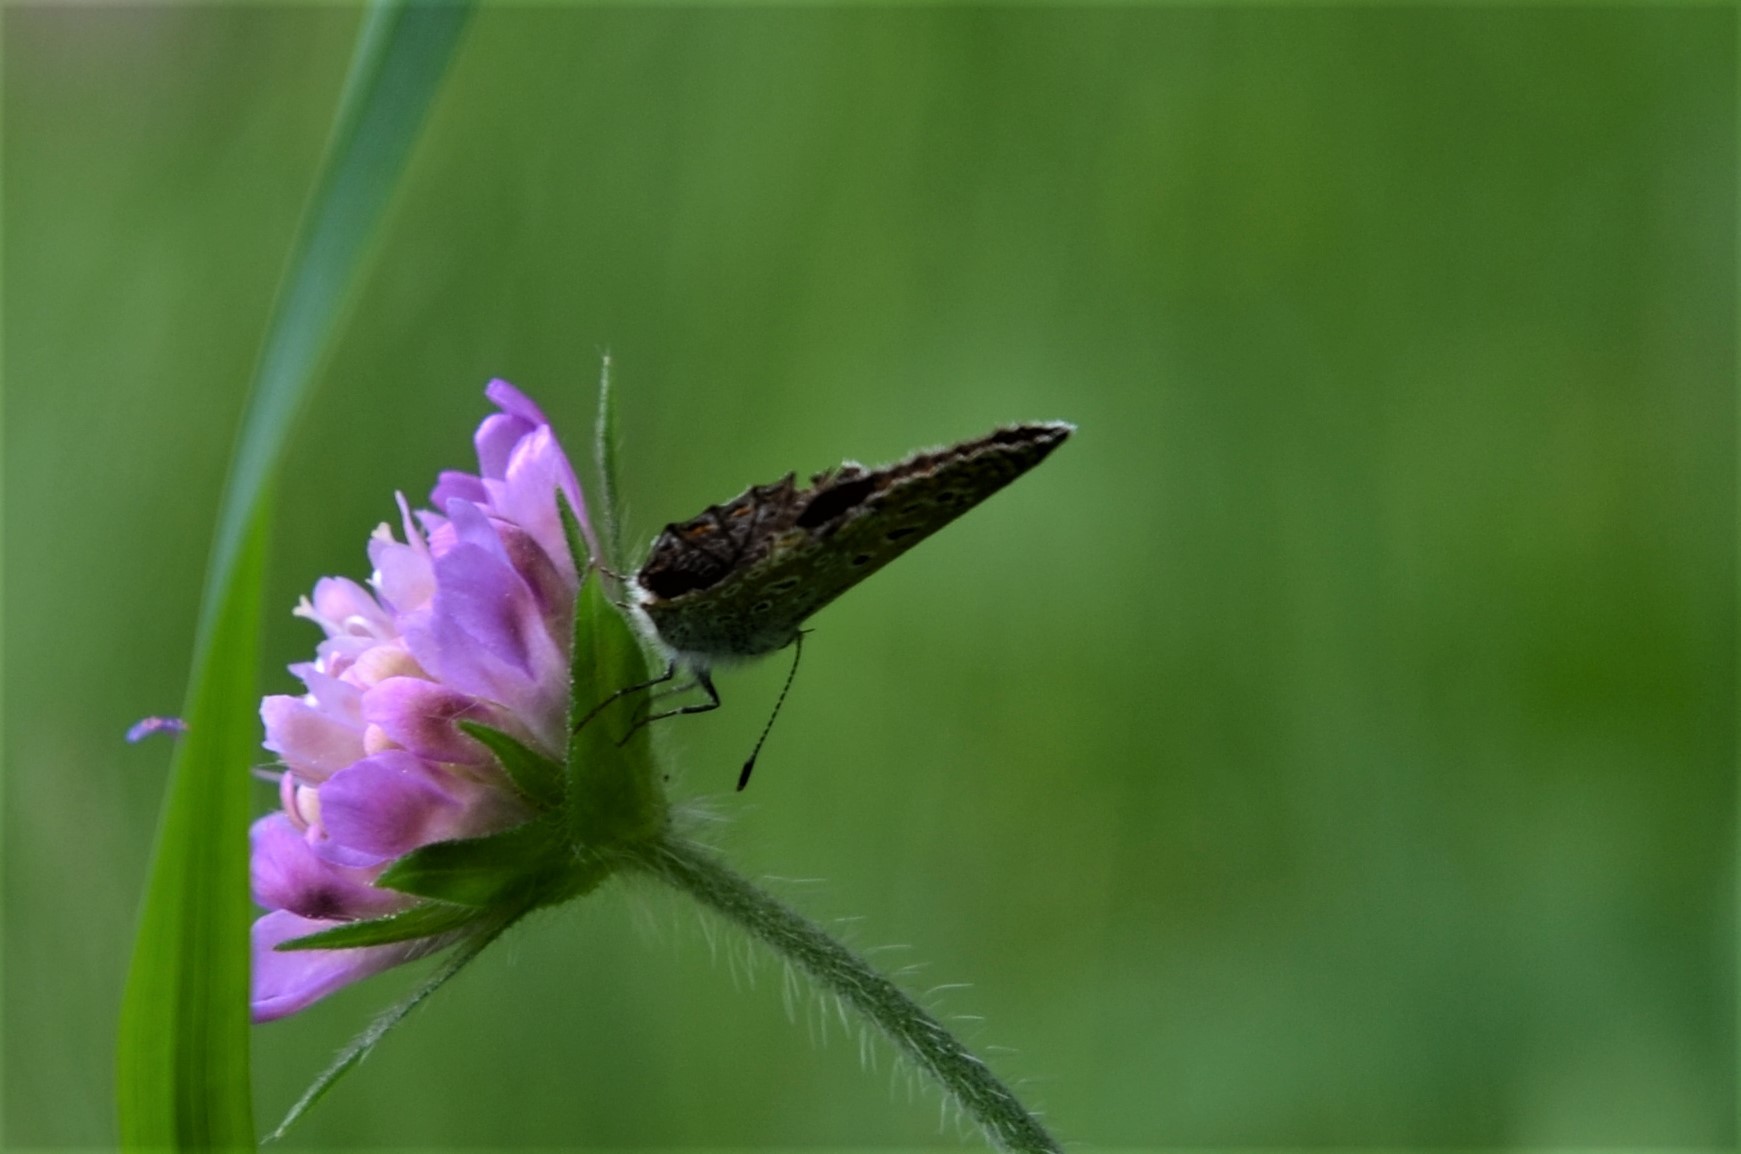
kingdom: Animalia
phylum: Arthropoda
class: Insecta
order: Lepidoptera
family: Lycaenidae
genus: Polyommatus
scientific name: Polyommatus icarus
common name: Common blue
